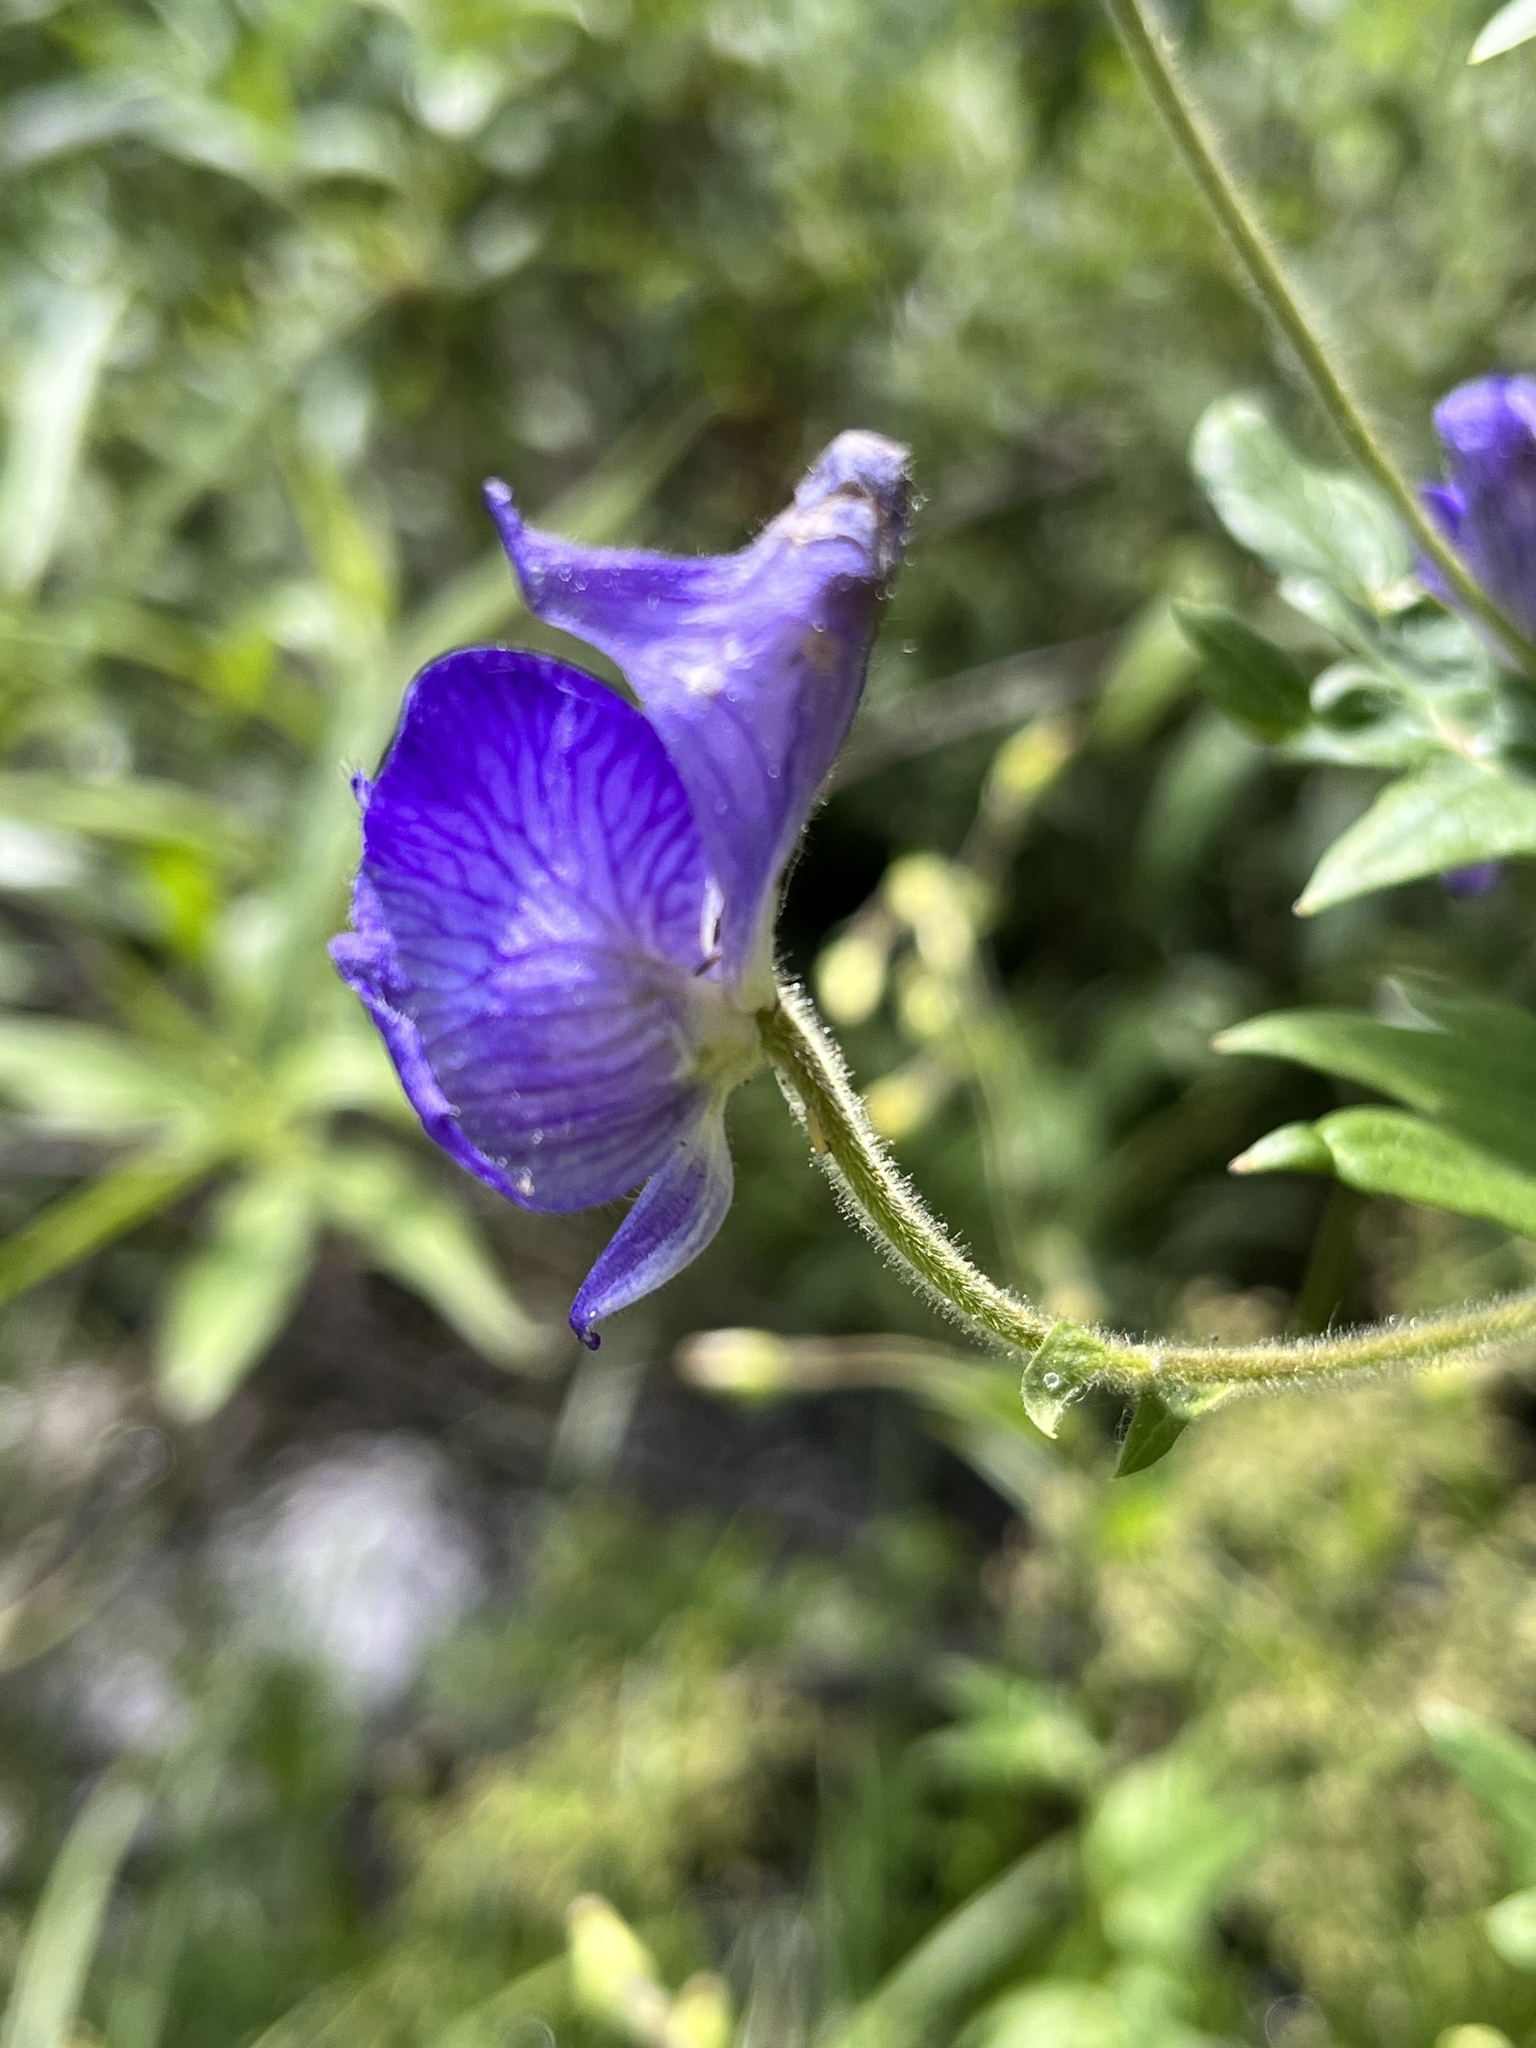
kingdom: Plantae
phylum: Tracheophyta
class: Magnoliopsida
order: Ranunculales
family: Ranunculaceae
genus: Aconitum
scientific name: Aconitum columbianum
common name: Columbia aconite
